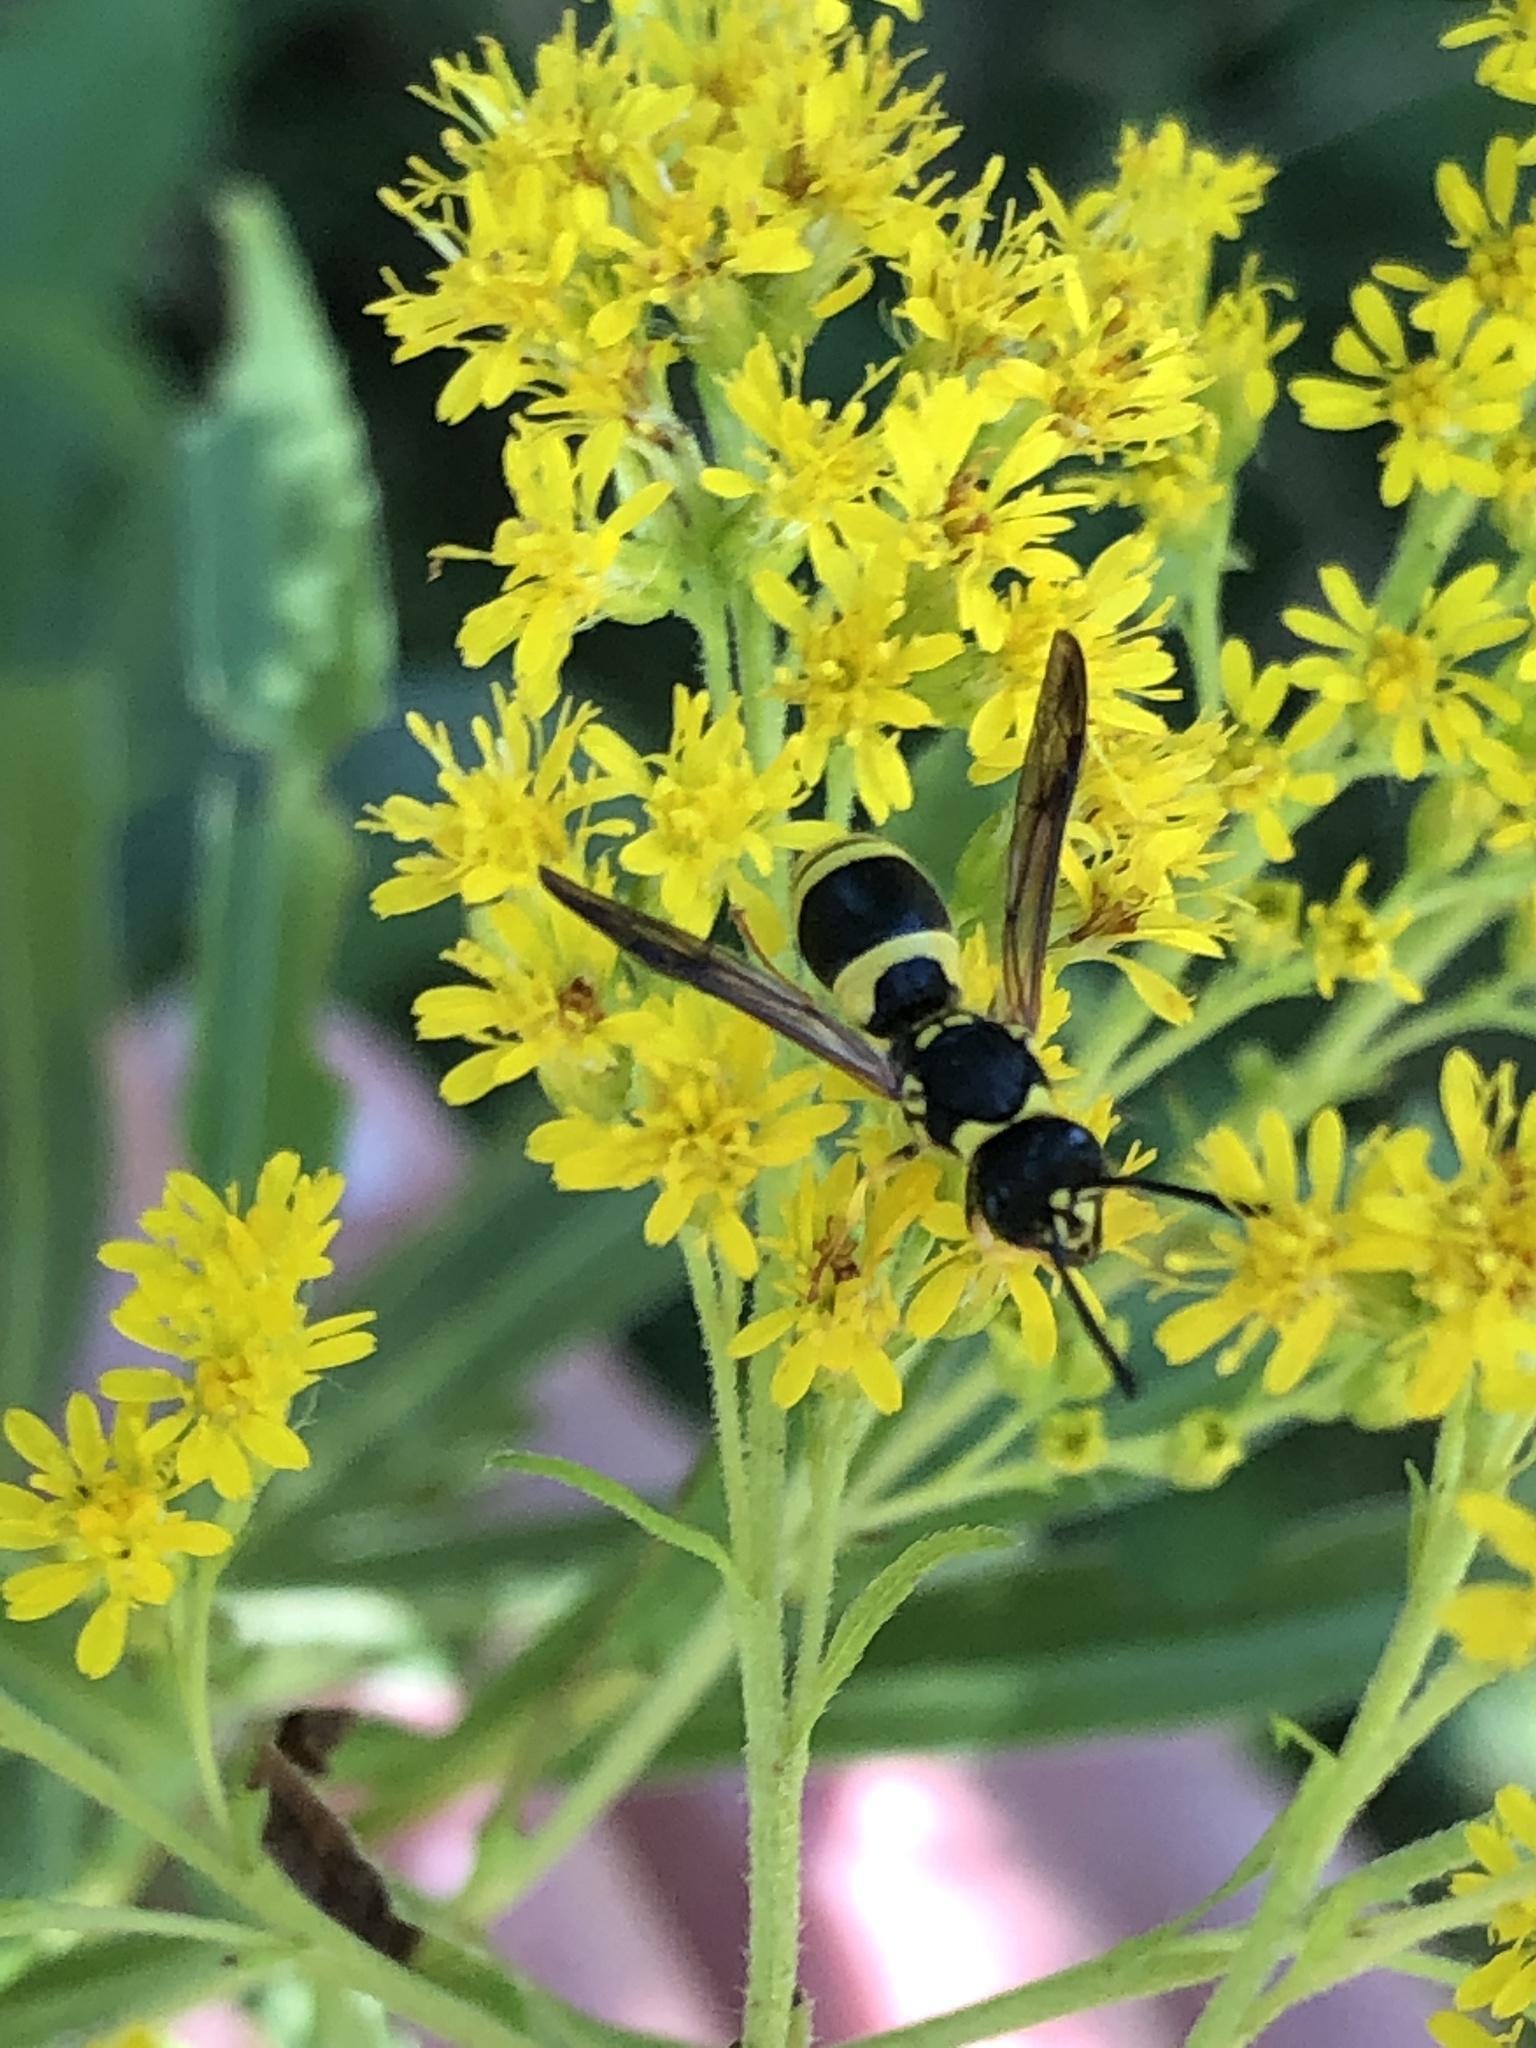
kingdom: Animalia
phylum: Arthropoda
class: Insecta
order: Hymenoptera
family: Vespidae
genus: Ancistrocerus
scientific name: Ancistrocerus gazella
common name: European tube wasp
